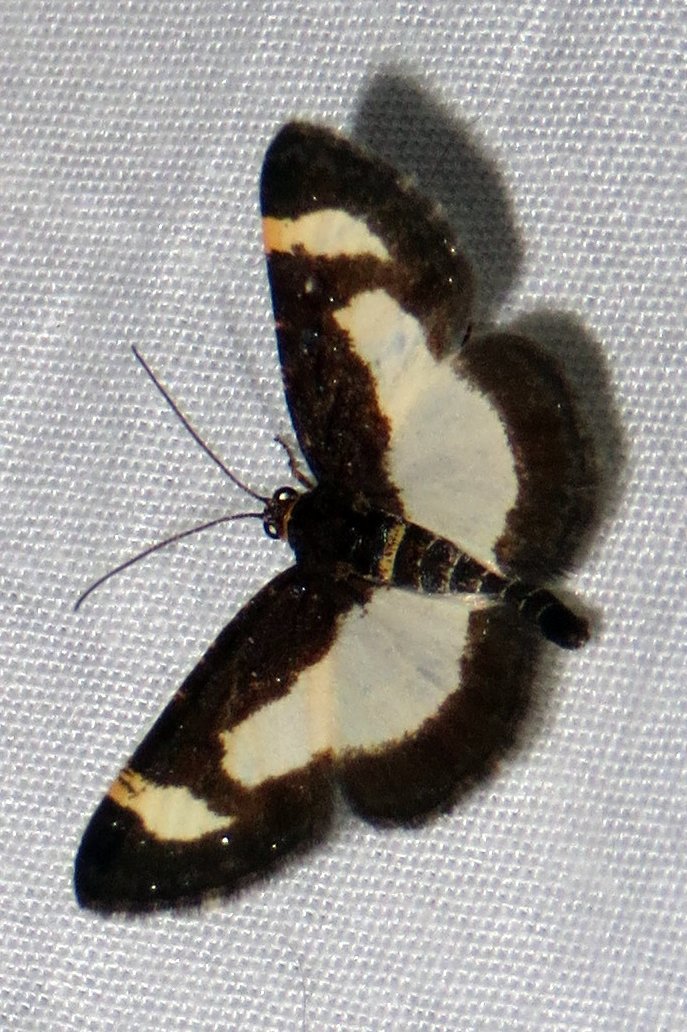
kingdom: Animalia
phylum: Arthropoda
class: Insecta
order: Lepidoptera
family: Geometridae
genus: Heliomata
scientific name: Heliomata cycladata
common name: Common spring moth
